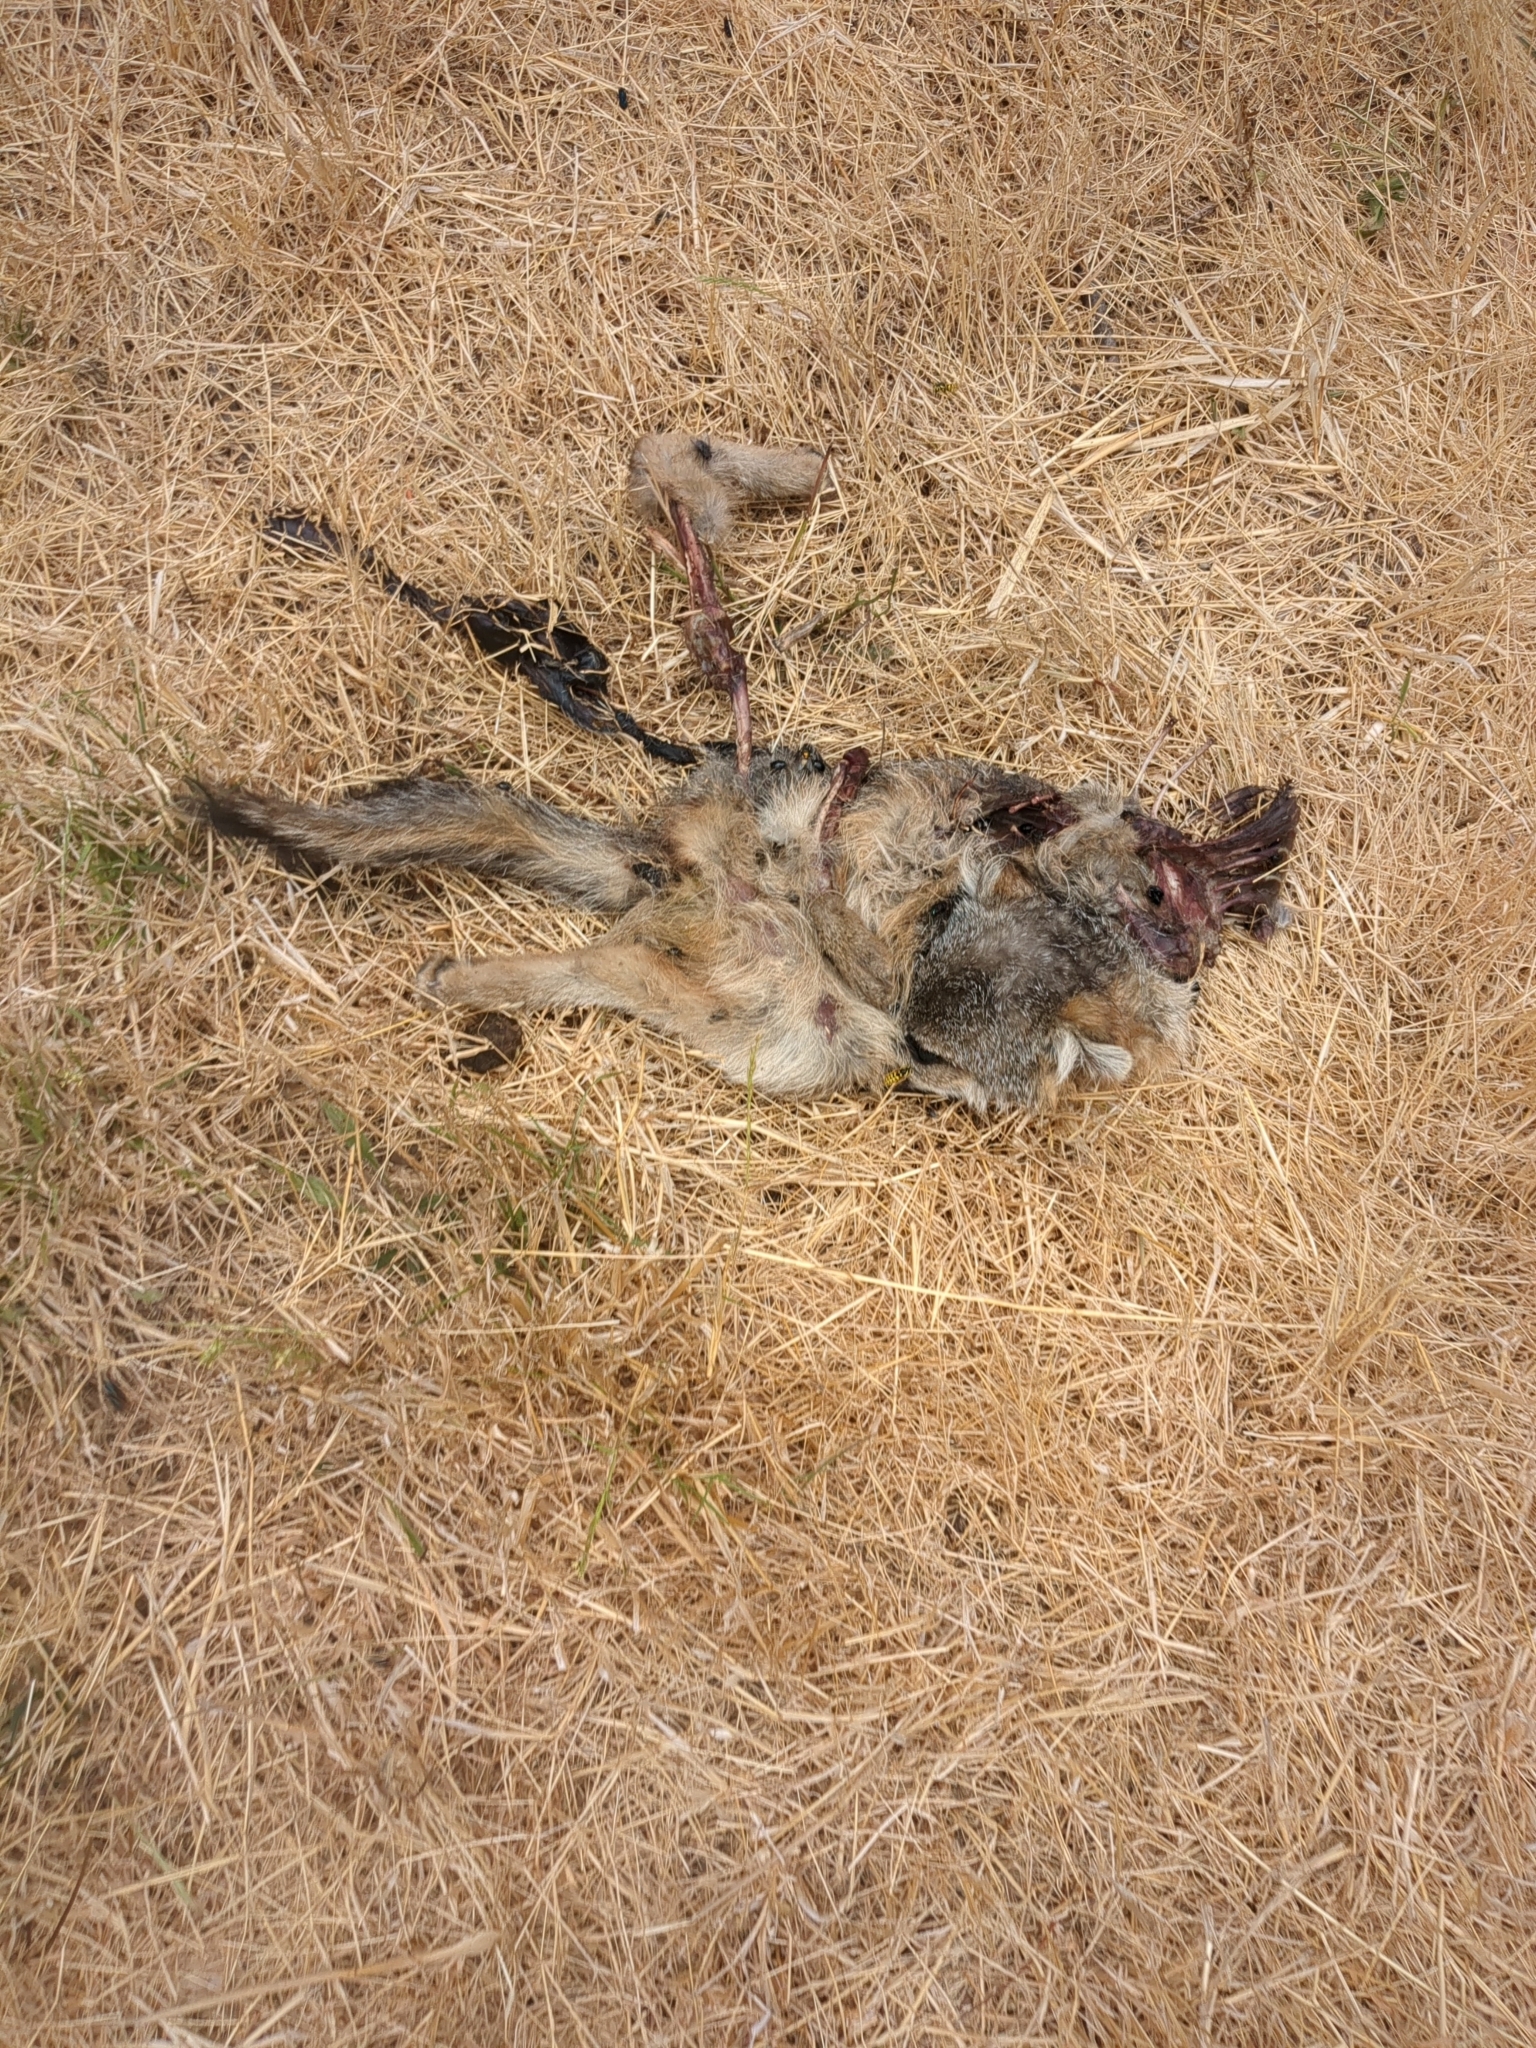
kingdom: Animalia
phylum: Chordata
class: Mammalia
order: Carnivora
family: Canidae
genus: Urocyon
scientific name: Urocyon cinereoargenteus
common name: Gray fox
